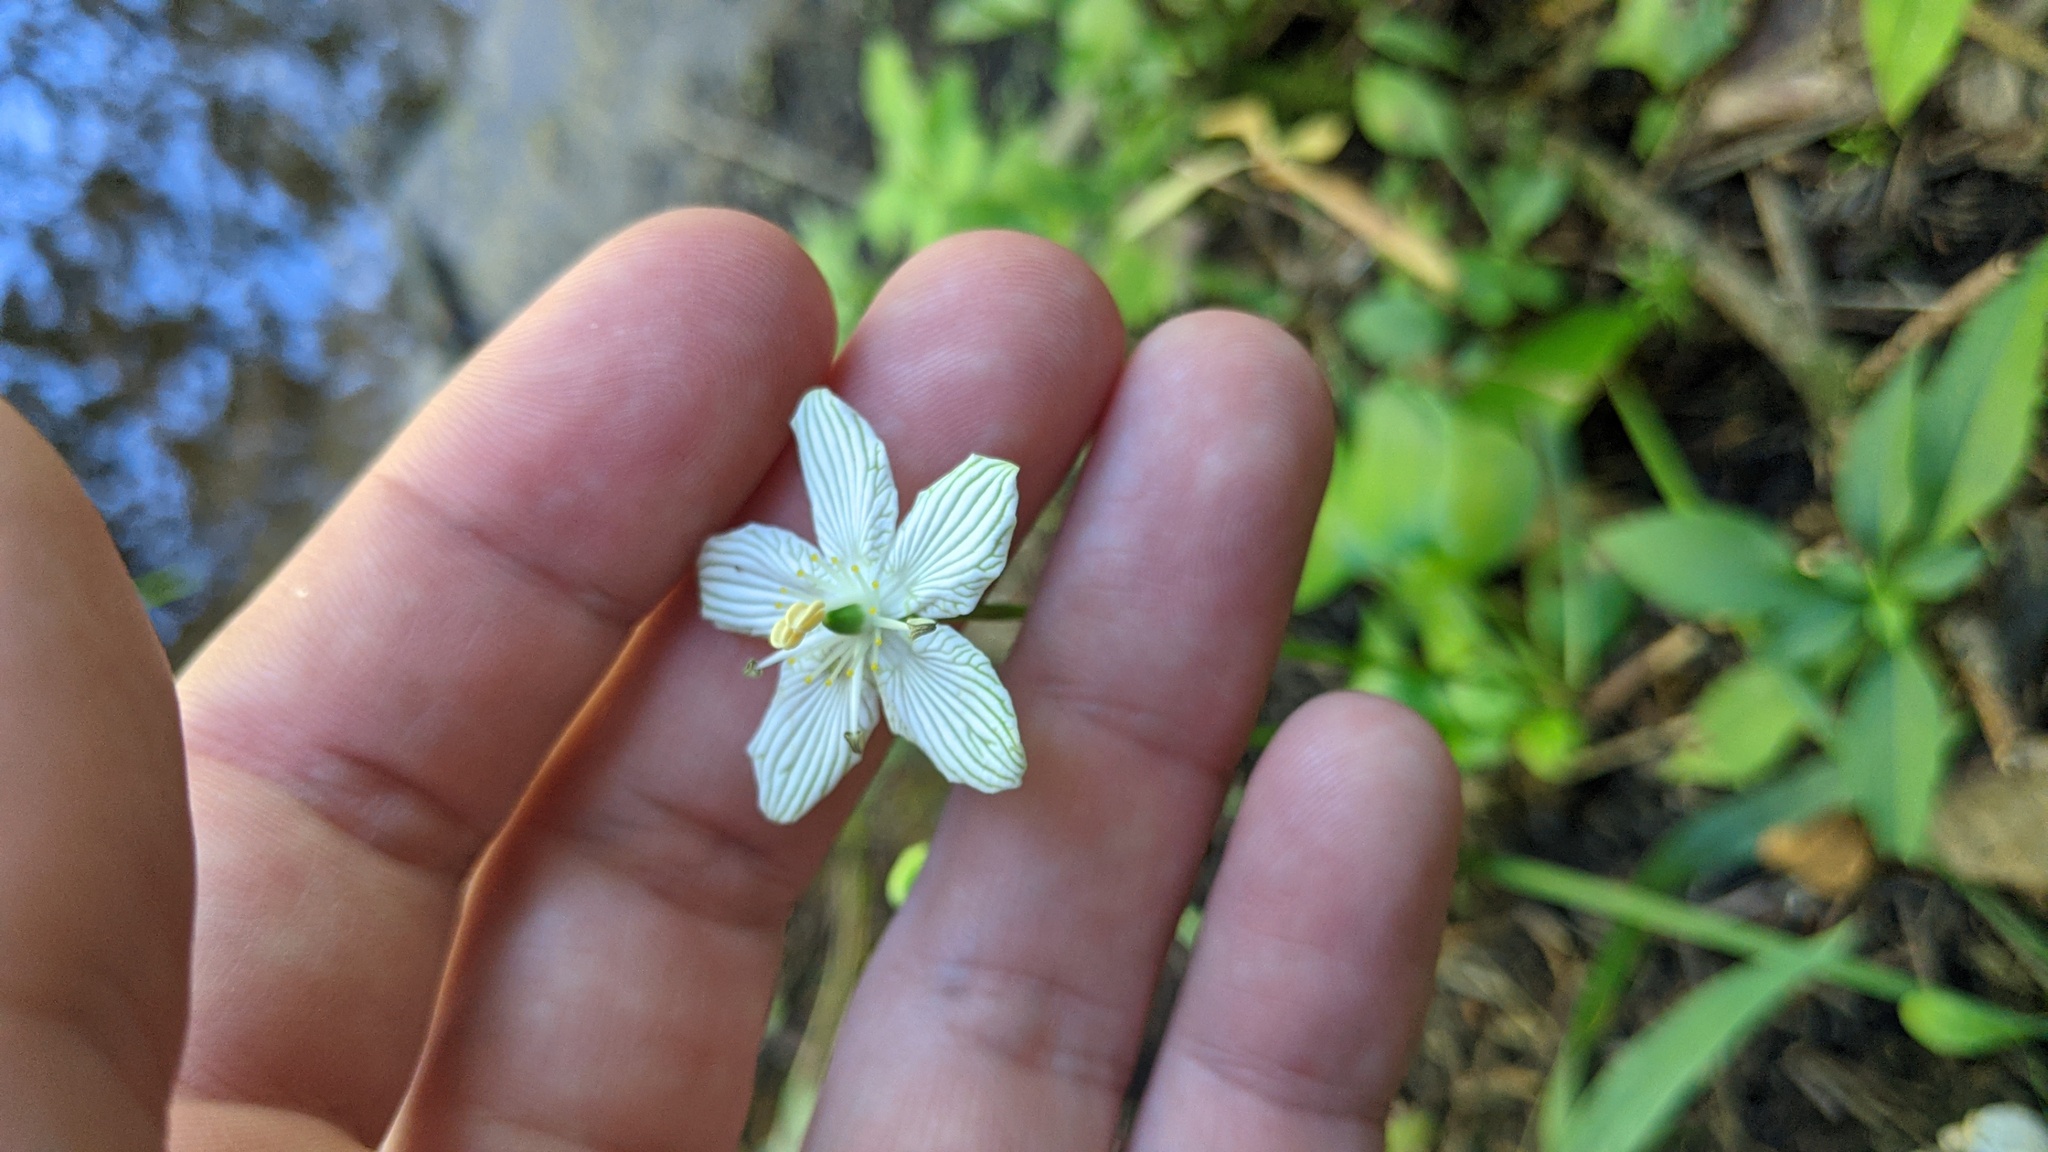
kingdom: Plantae
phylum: Tracheophyta
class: Magnoliopsida
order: Celastrales
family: Parnassiaceae
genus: Parnassia
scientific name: Parnassia glauca
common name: American grass-of-parnassus
